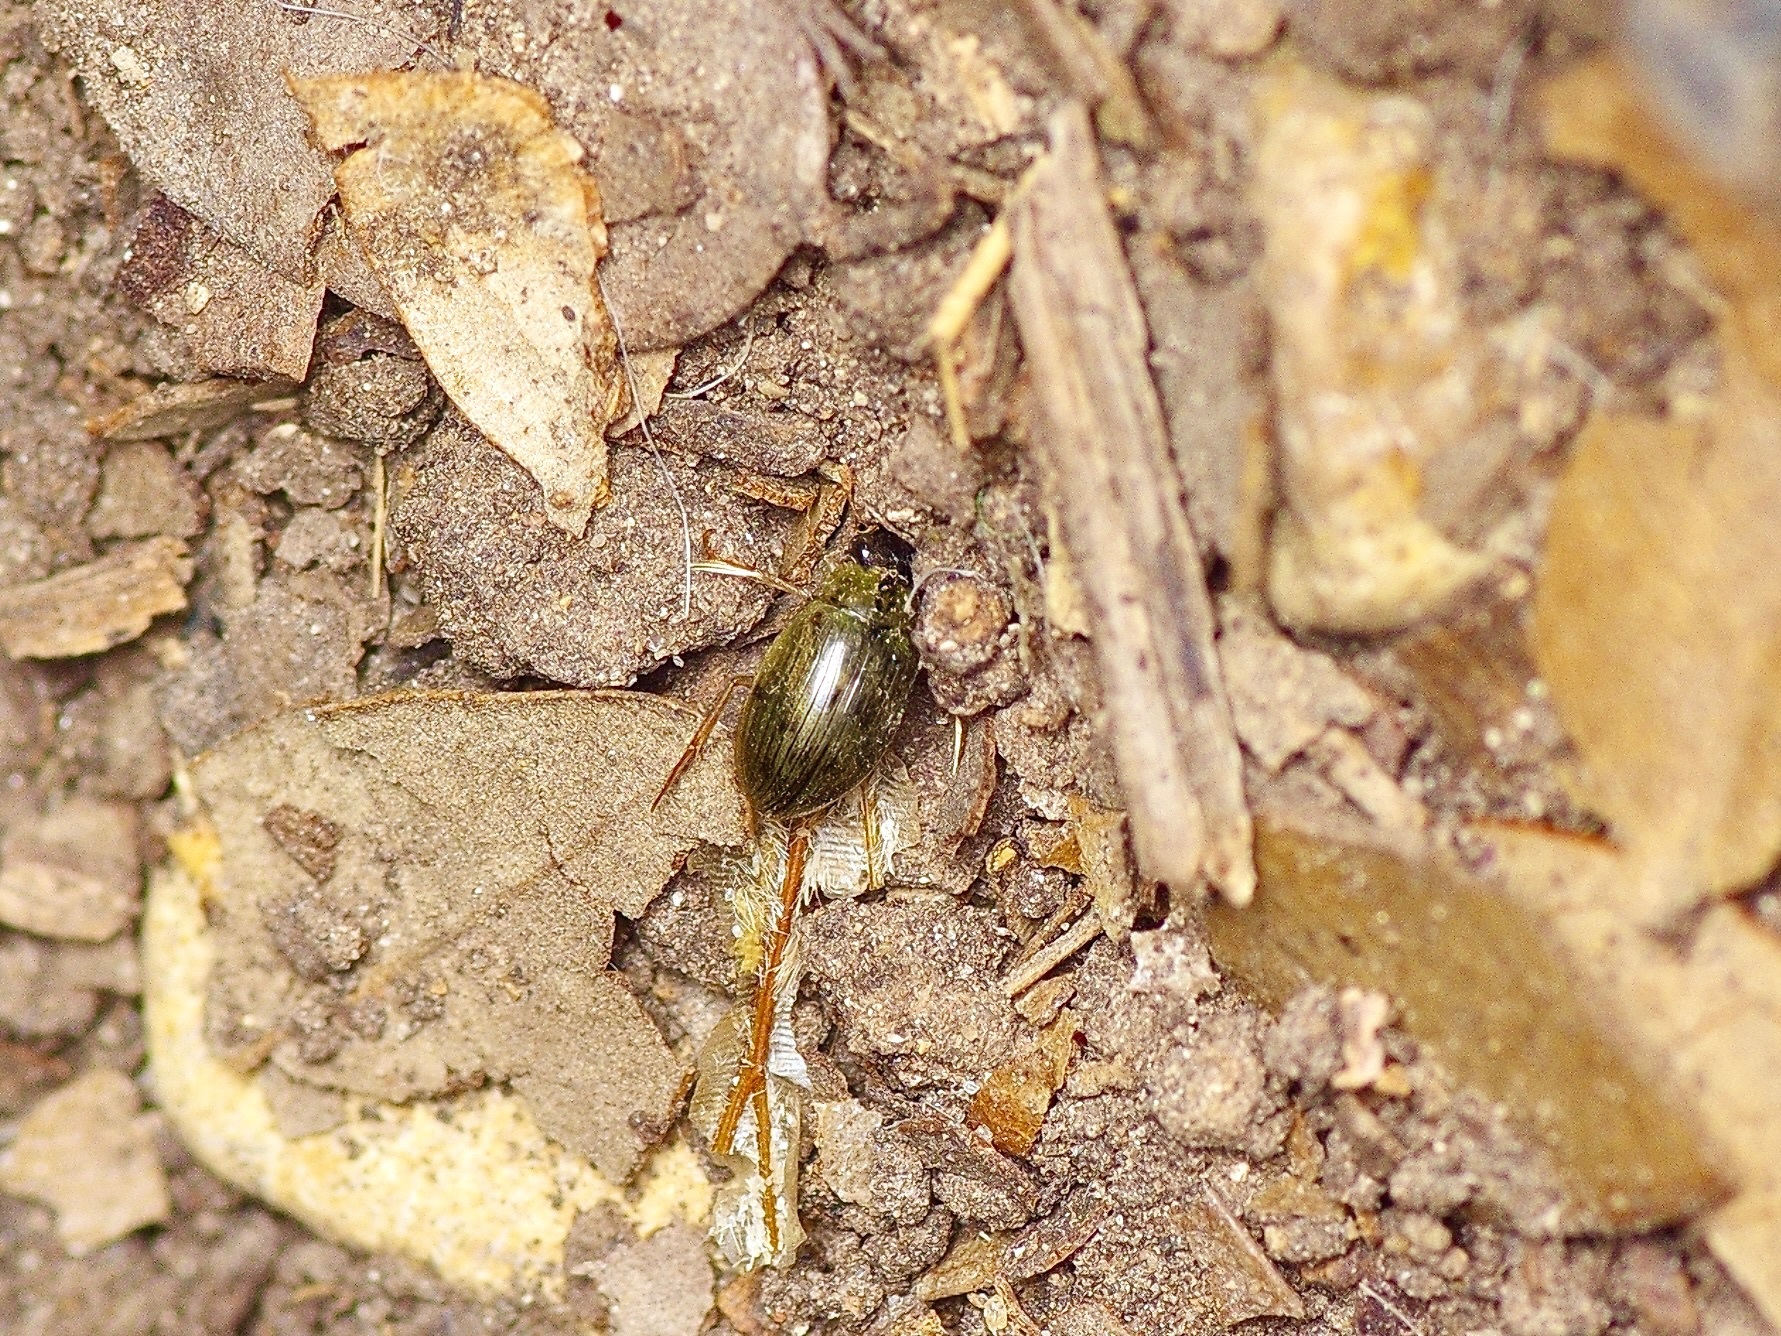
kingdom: Animalia
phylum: Arthropoda
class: Insecta
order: Coleoptera
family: Hydrophilidae
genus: Berosus
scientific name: Berosus
